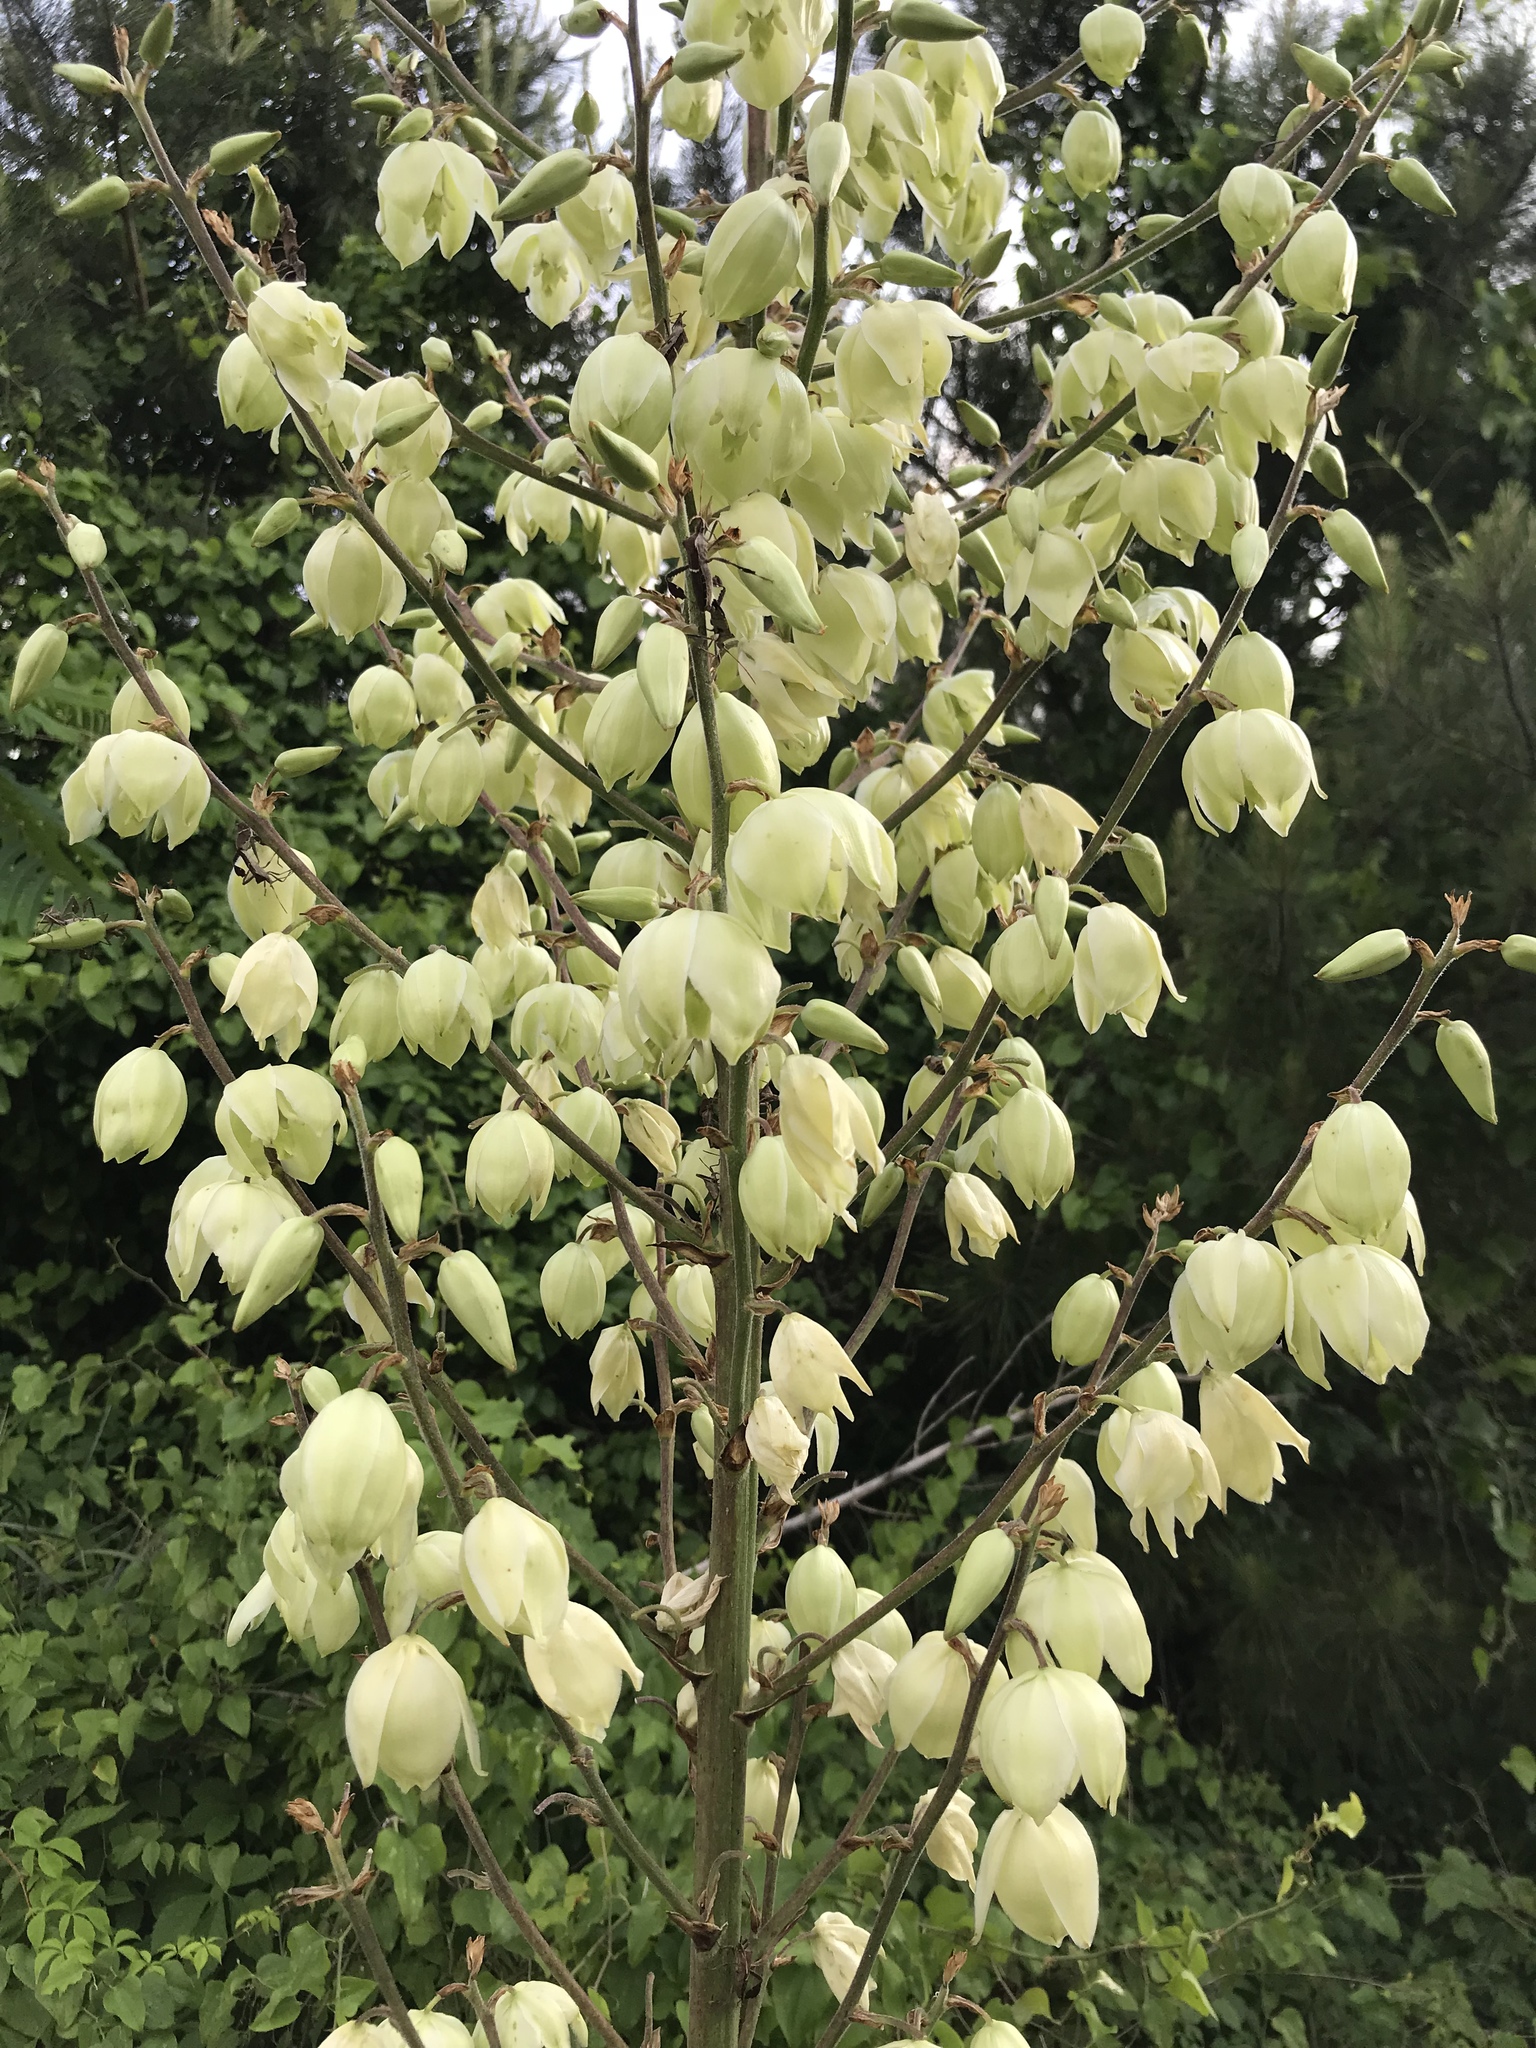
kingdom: Plantae
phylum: Tracheophyta
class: Liliopsida
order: Asparagales
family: Asparagaceae
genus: Yucca
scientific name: Yucca flaccida
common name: Adam's-needle
